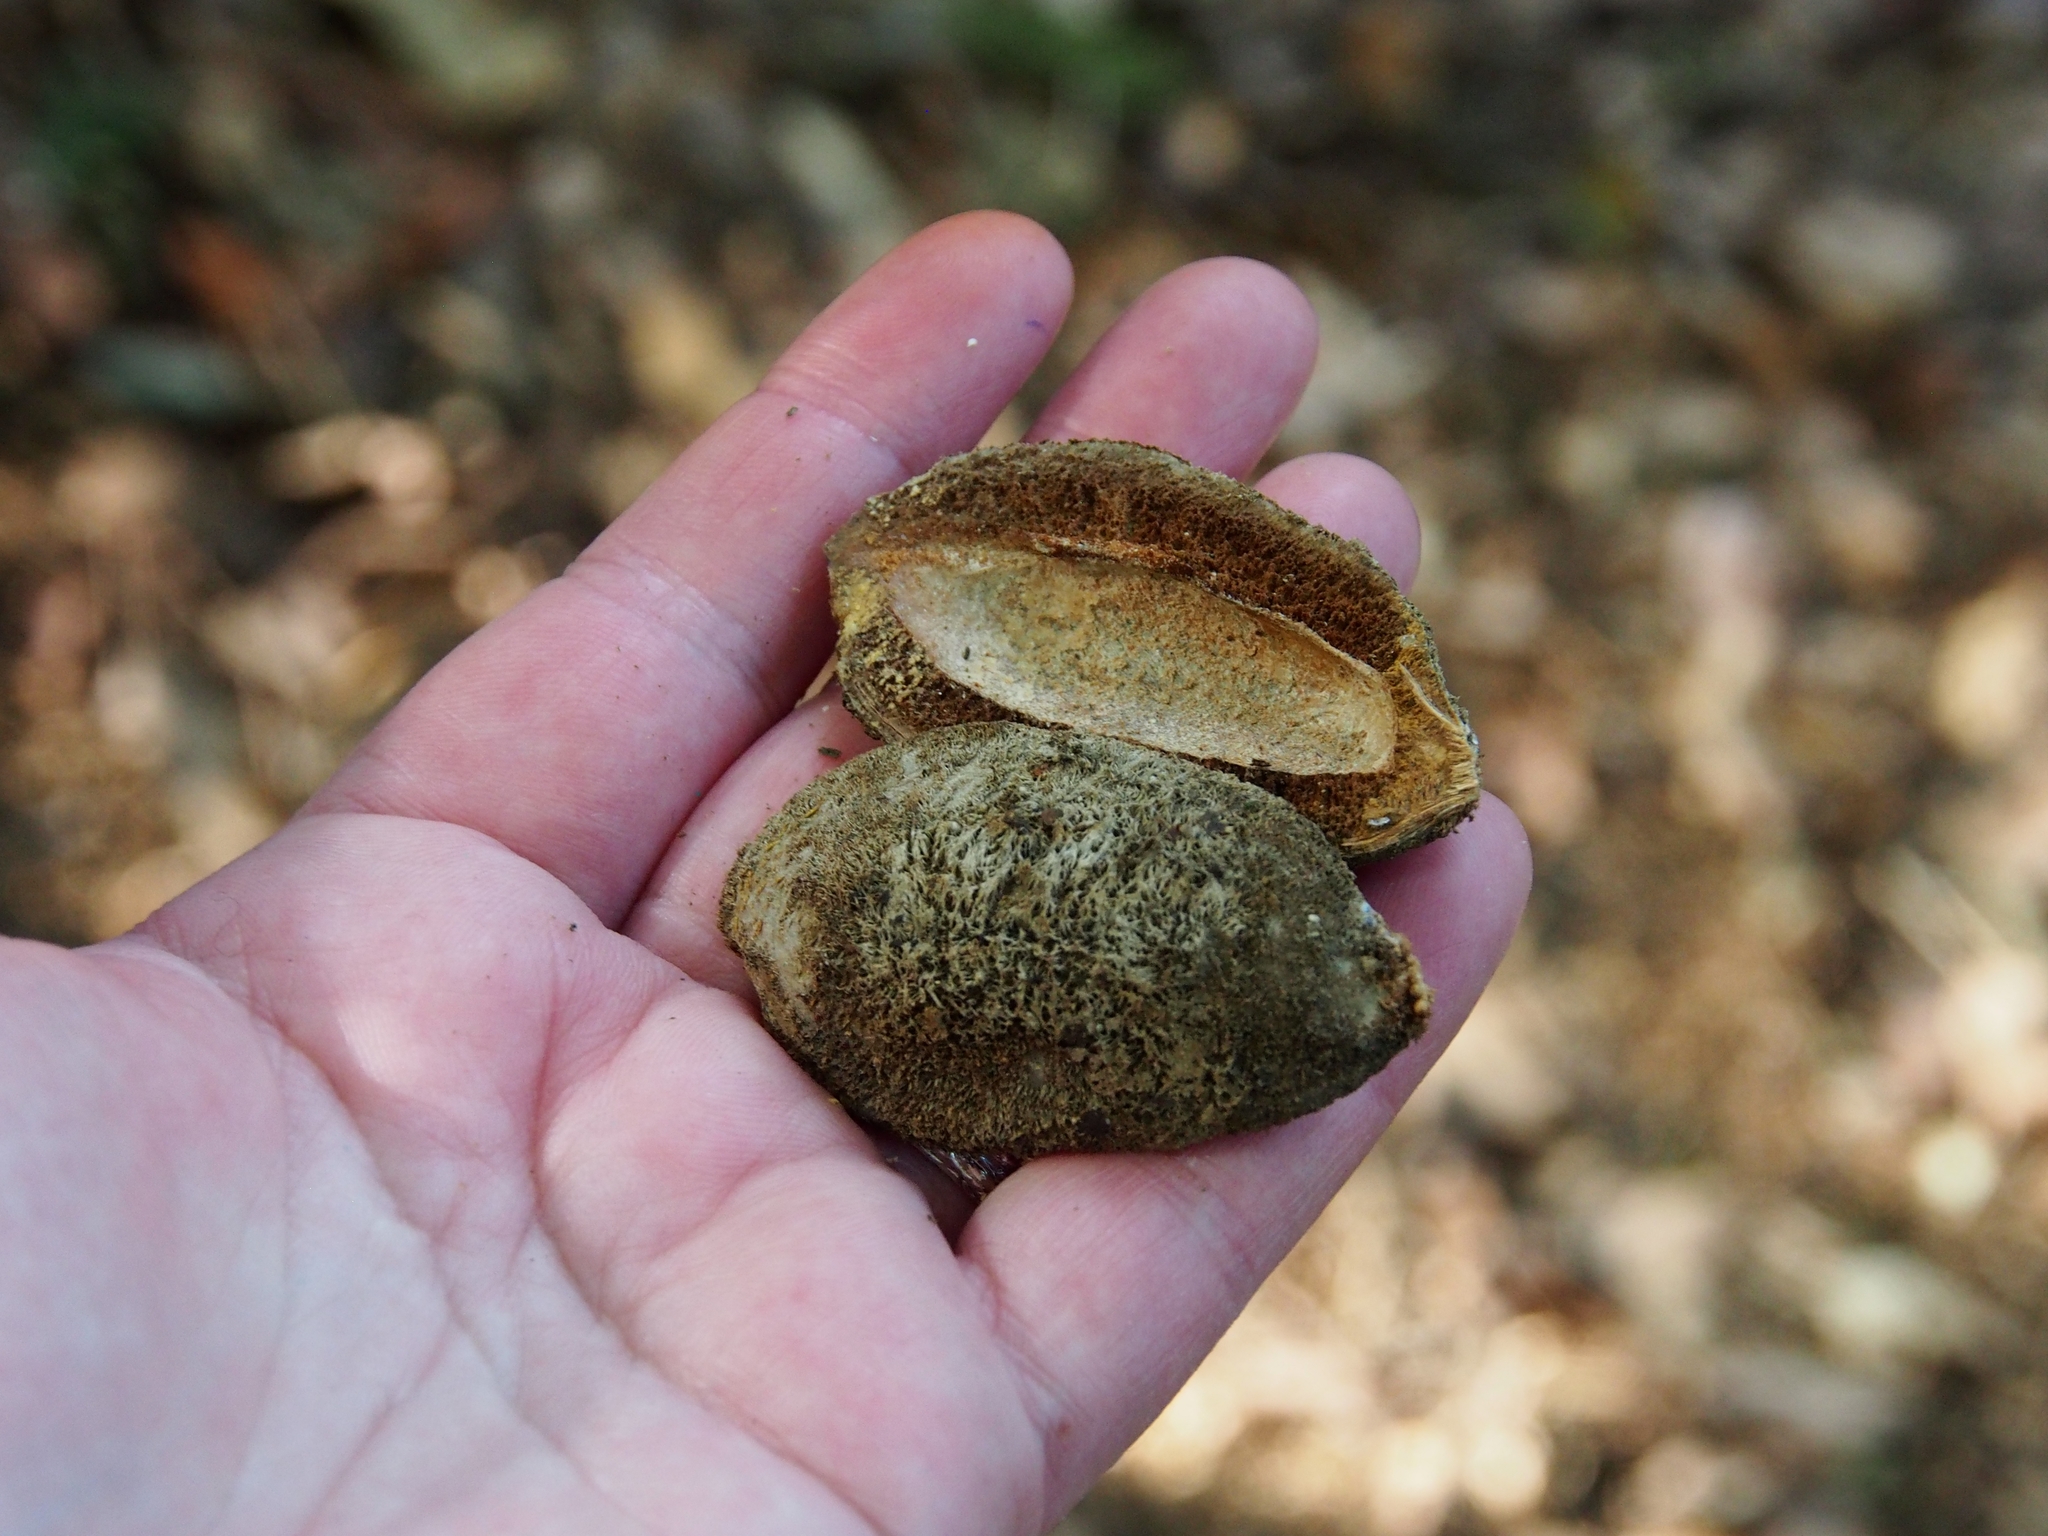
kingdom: Plantae
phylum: Tracheophyta
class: Magnoliopsida
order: Fabales
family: Fabaceae
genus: Dipteryx
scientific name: Dipteryx oleifera
